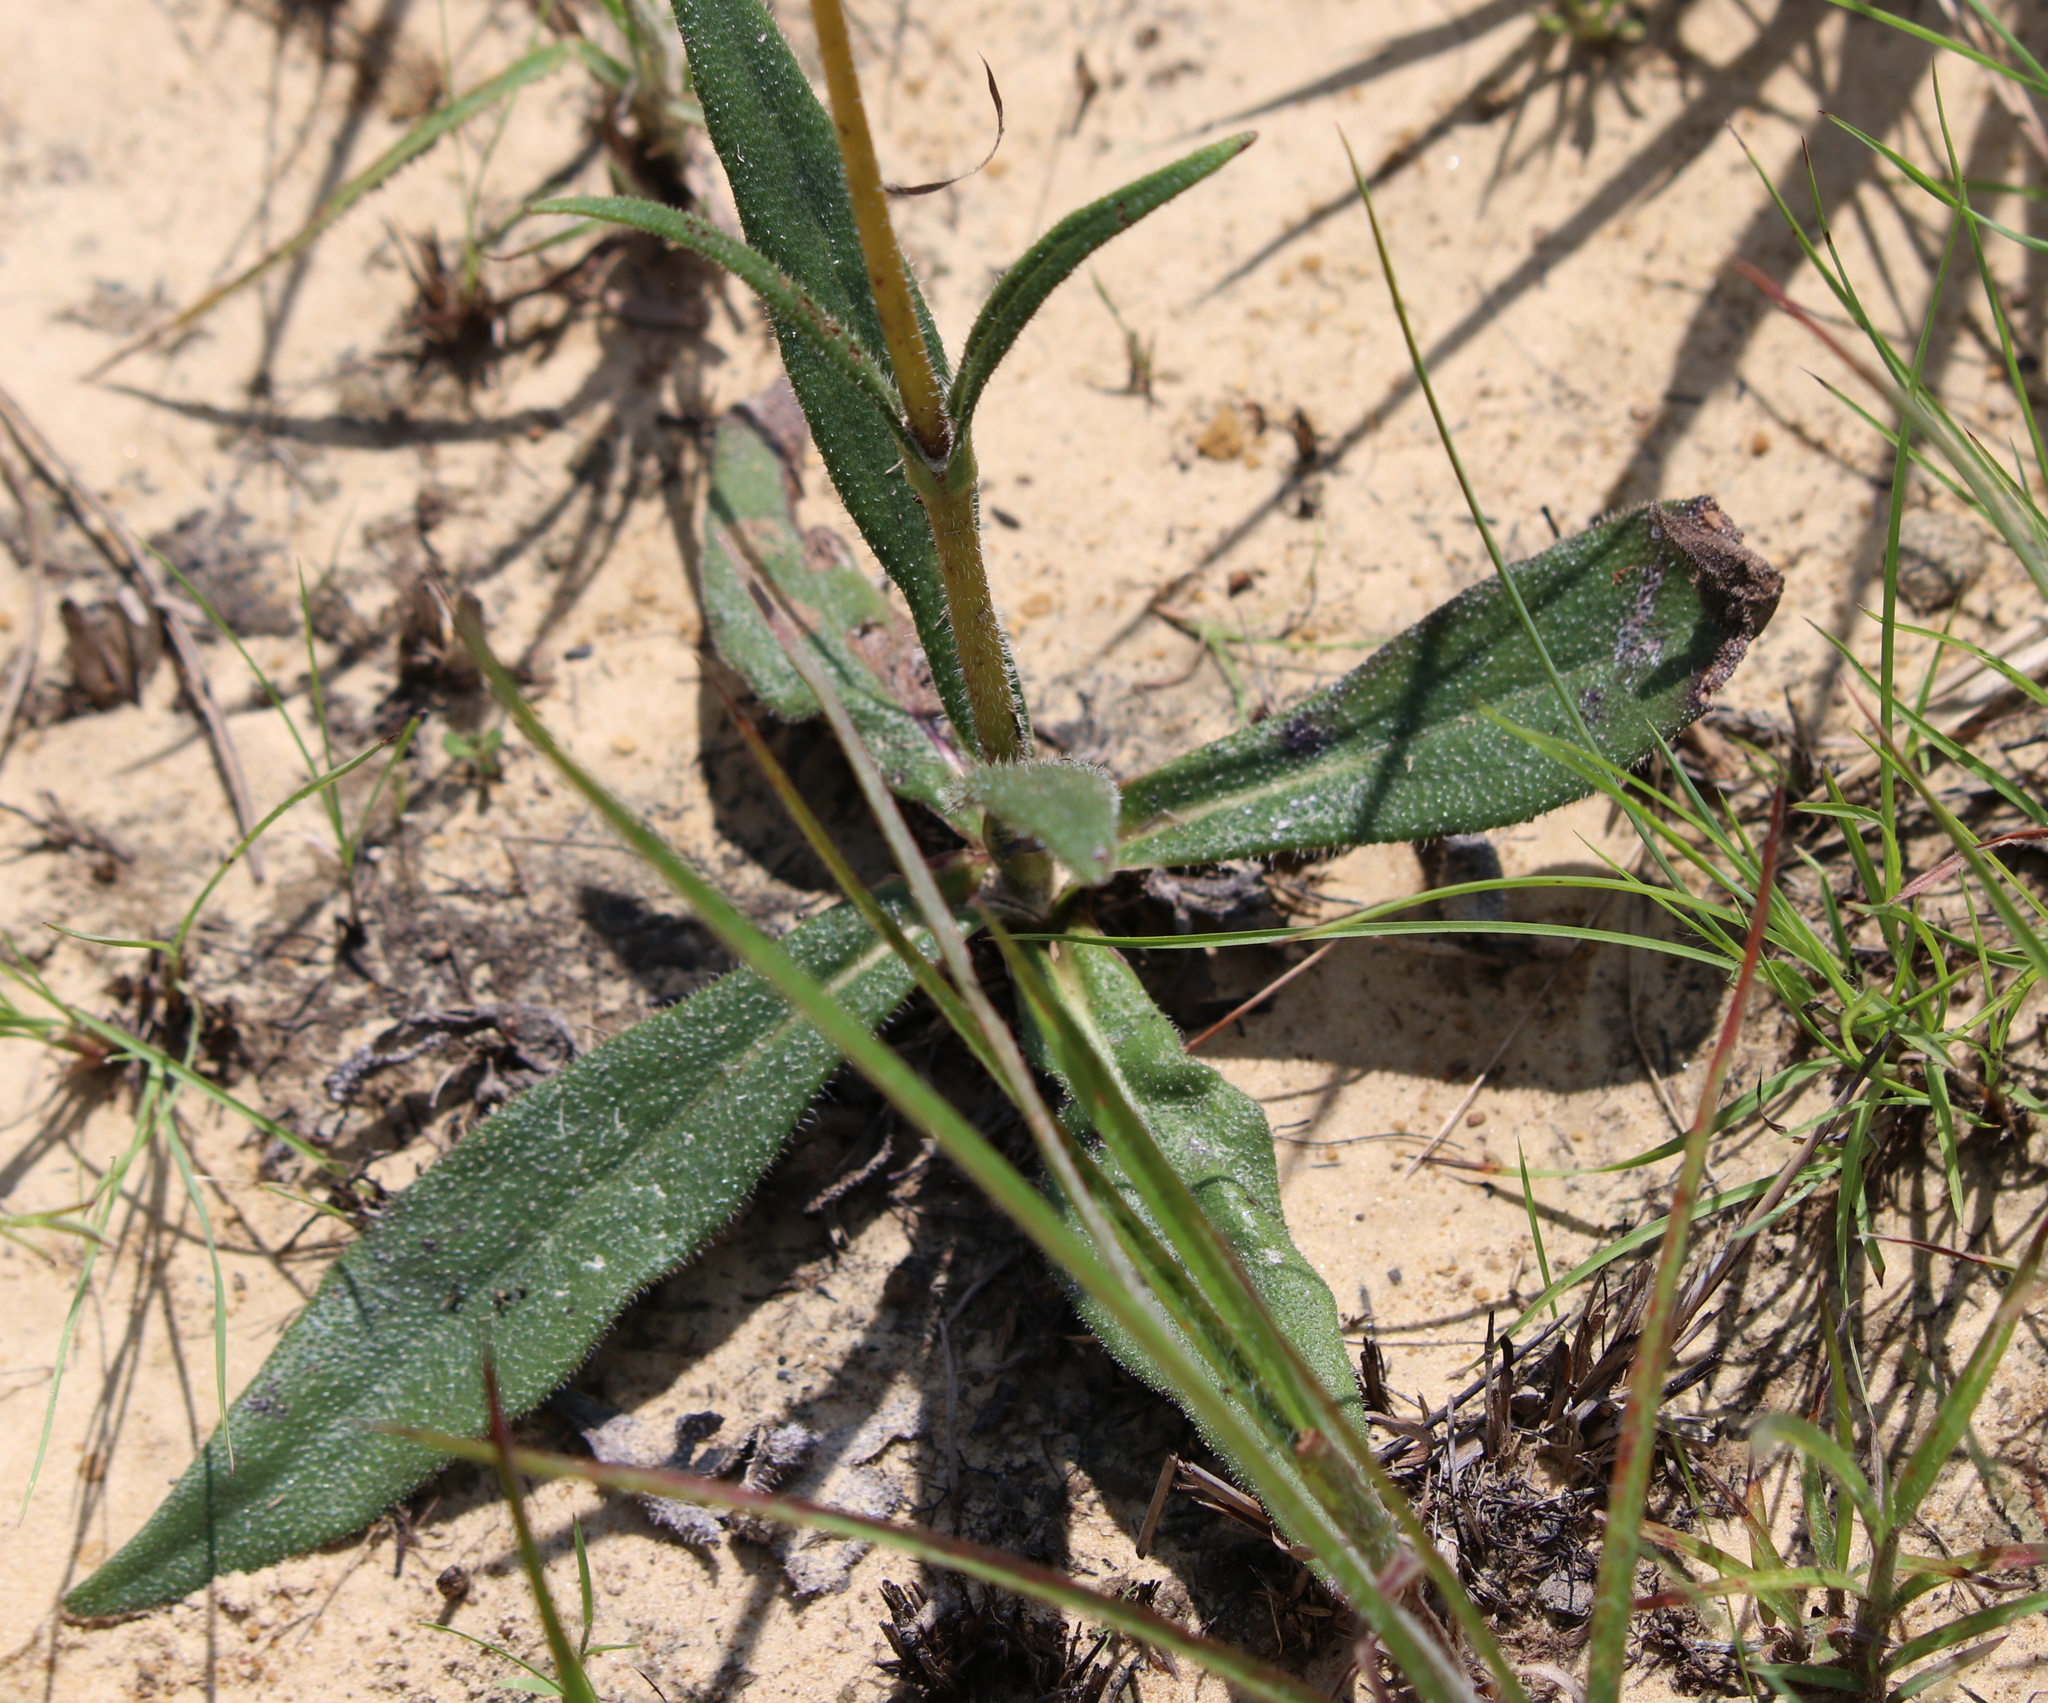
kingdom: Plantae
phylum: Tracheophyta
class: Magnoliopsida
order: Asterales
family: Asteraceae
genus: Helianthus
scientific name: Helianthus heterophyllus
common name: Wetland sunflower
